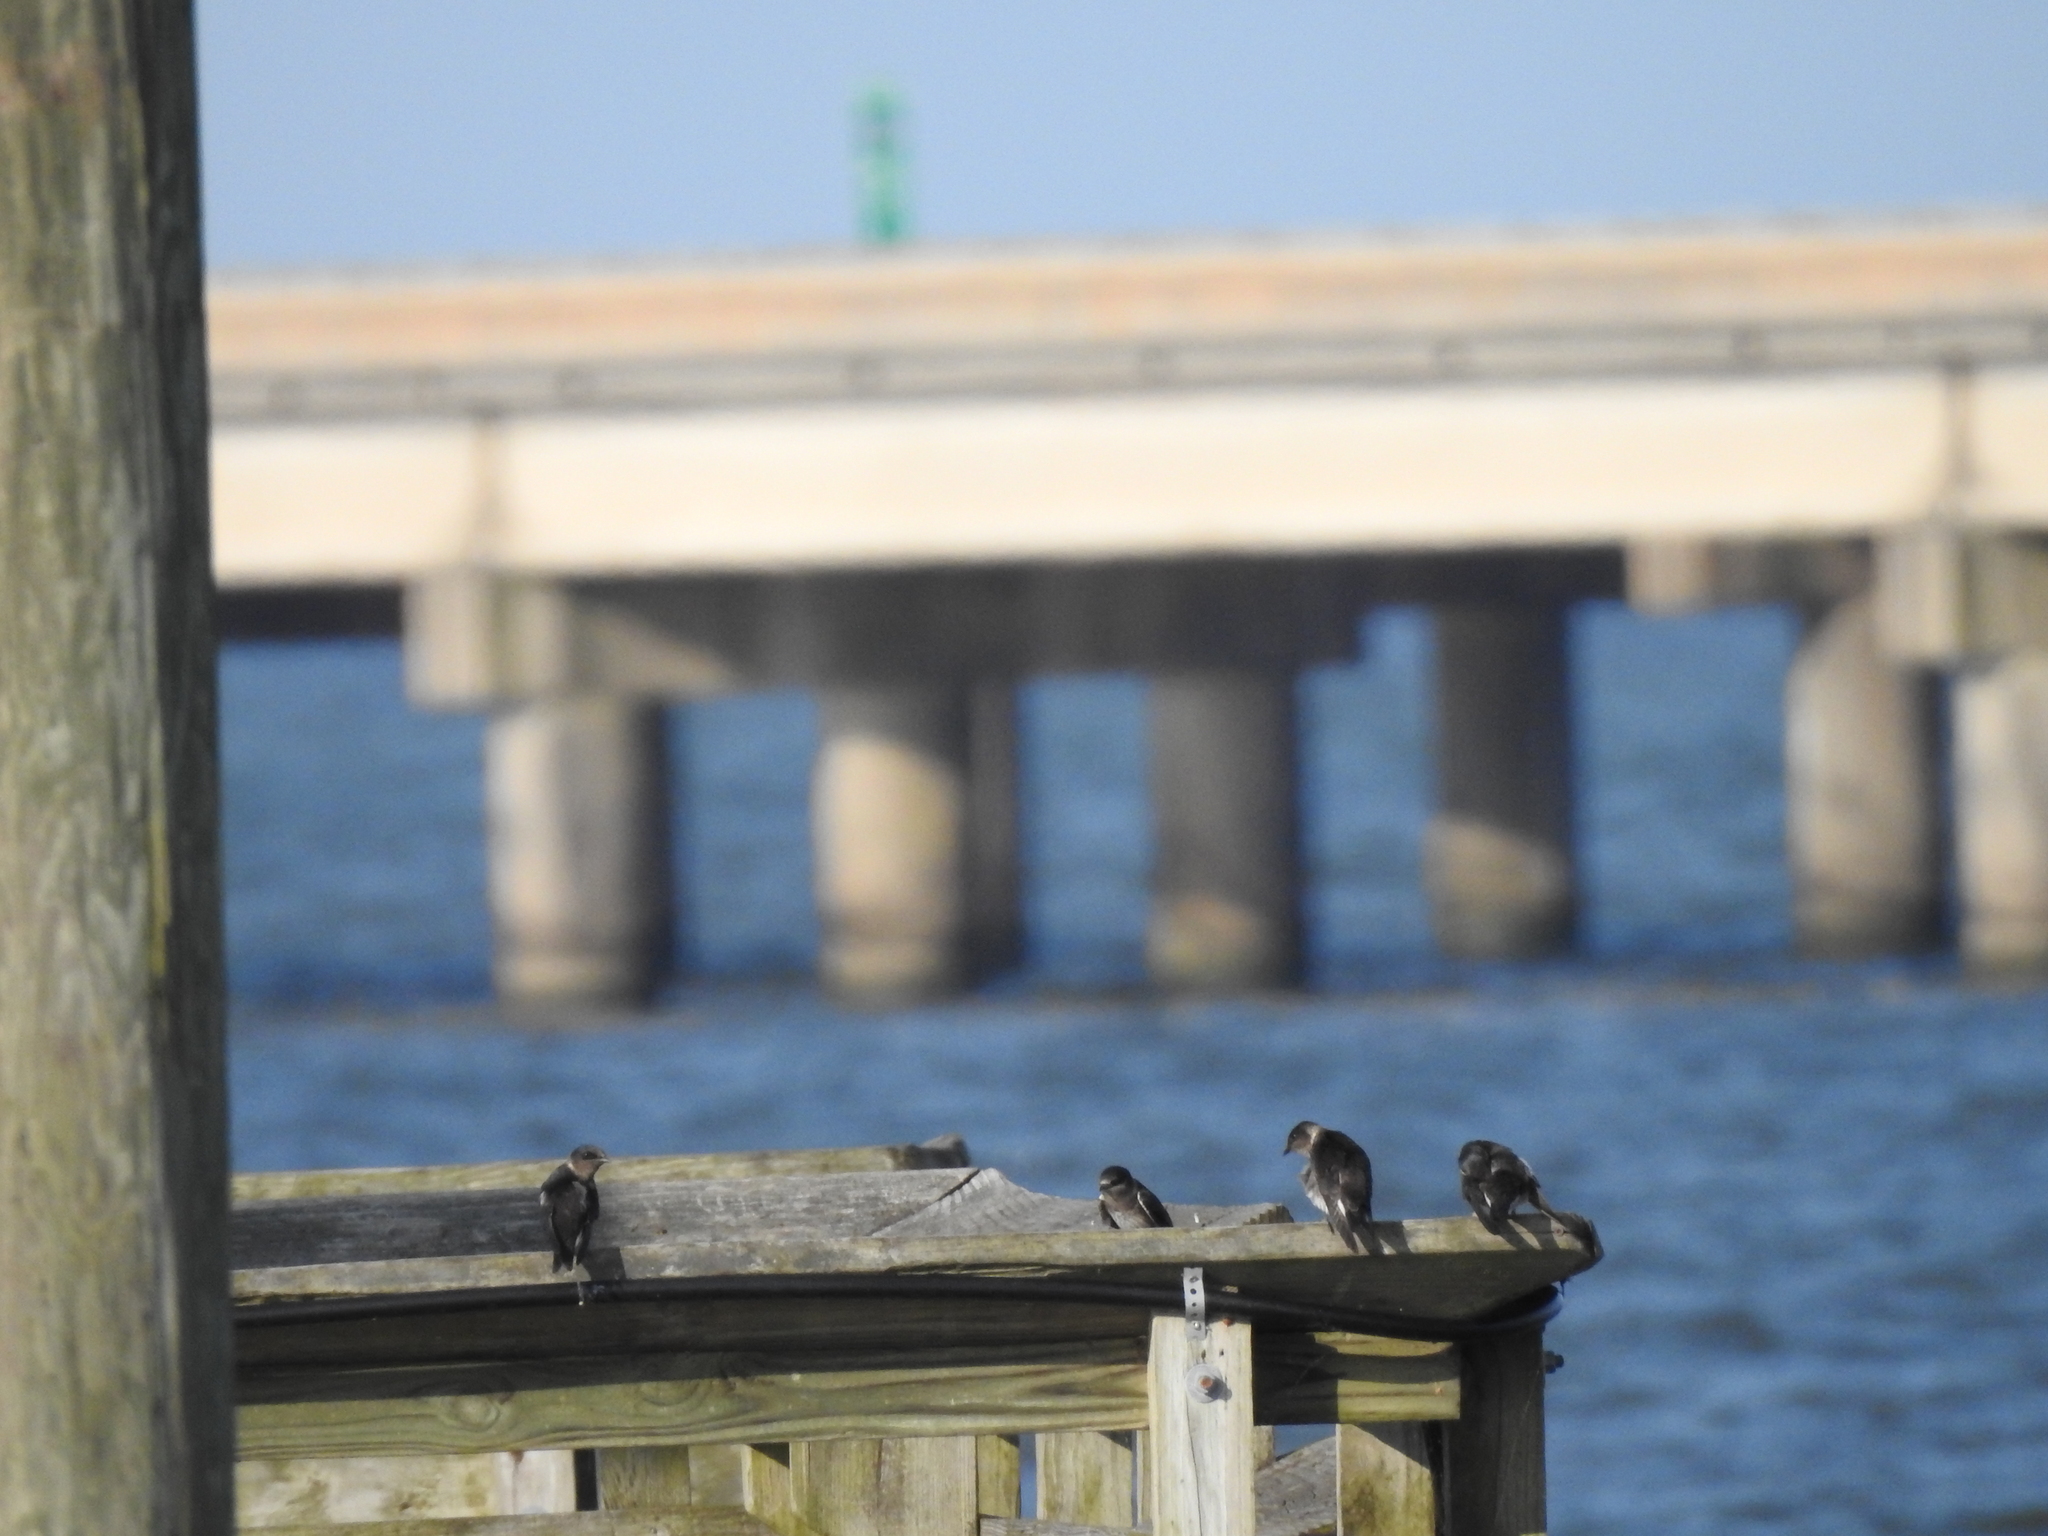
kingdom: Animalia
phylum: Chordata
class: Aves
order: Passeriformes
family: Hirundinidae
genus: Progne
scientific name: Progne subis
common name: Purple martin
